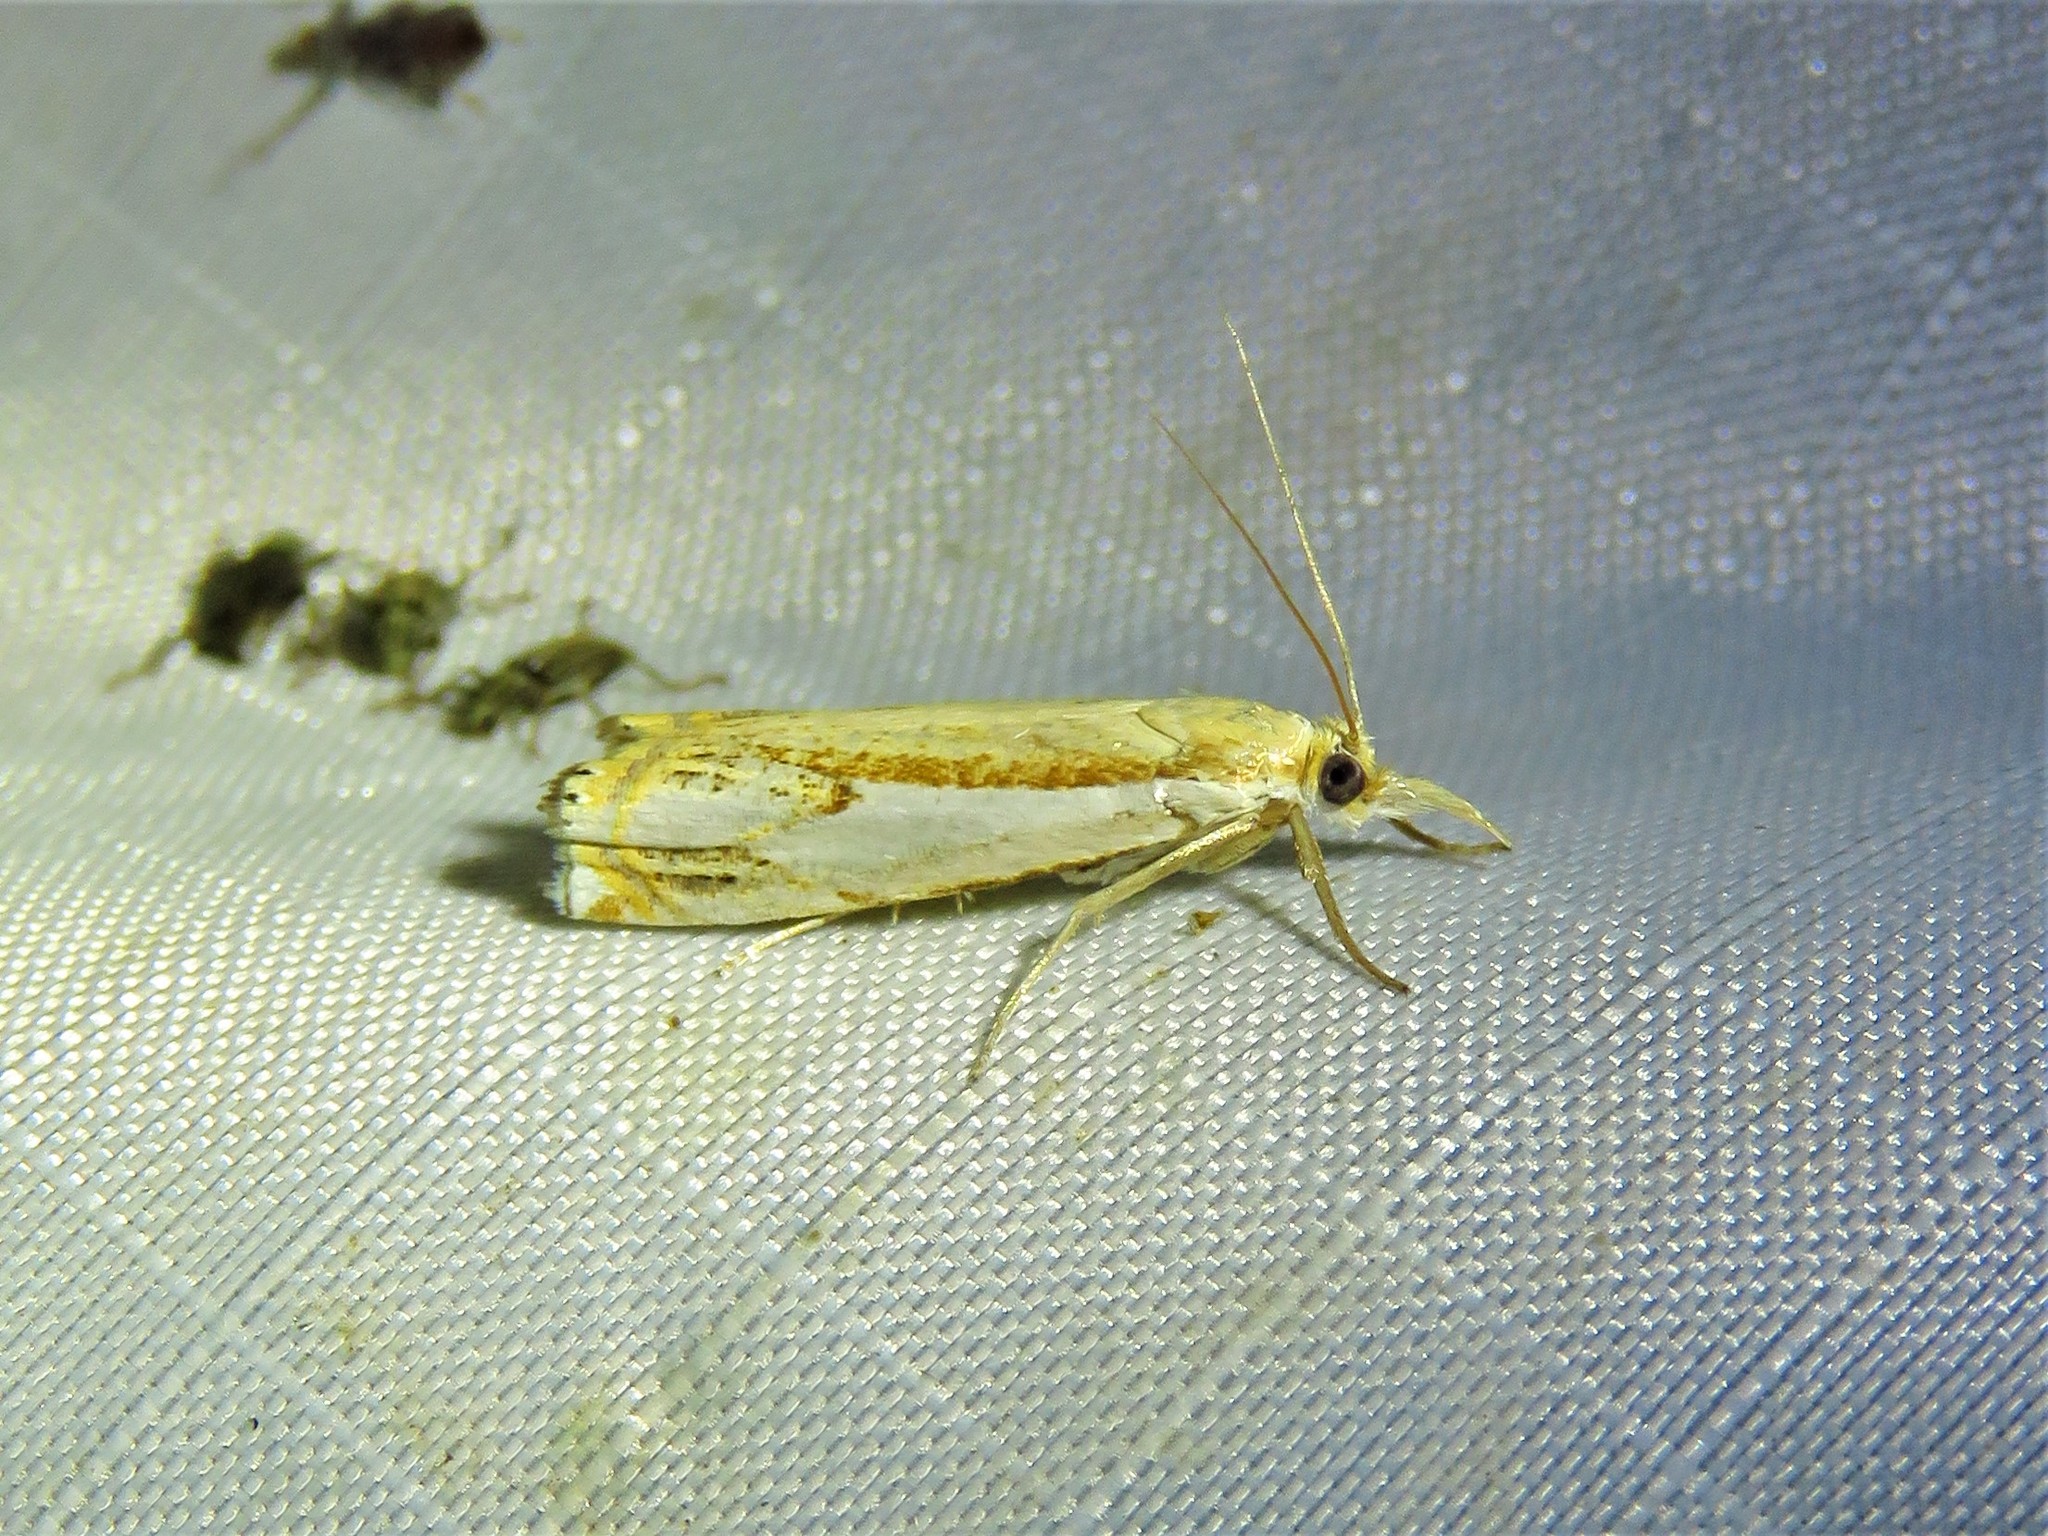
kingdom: Animalia
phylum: Arthropoda
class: Insecta
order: Lepidoptera
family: Crambidae
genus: Crambus
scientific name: Crambus agitatellus
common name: Double-banded grass-veneer
